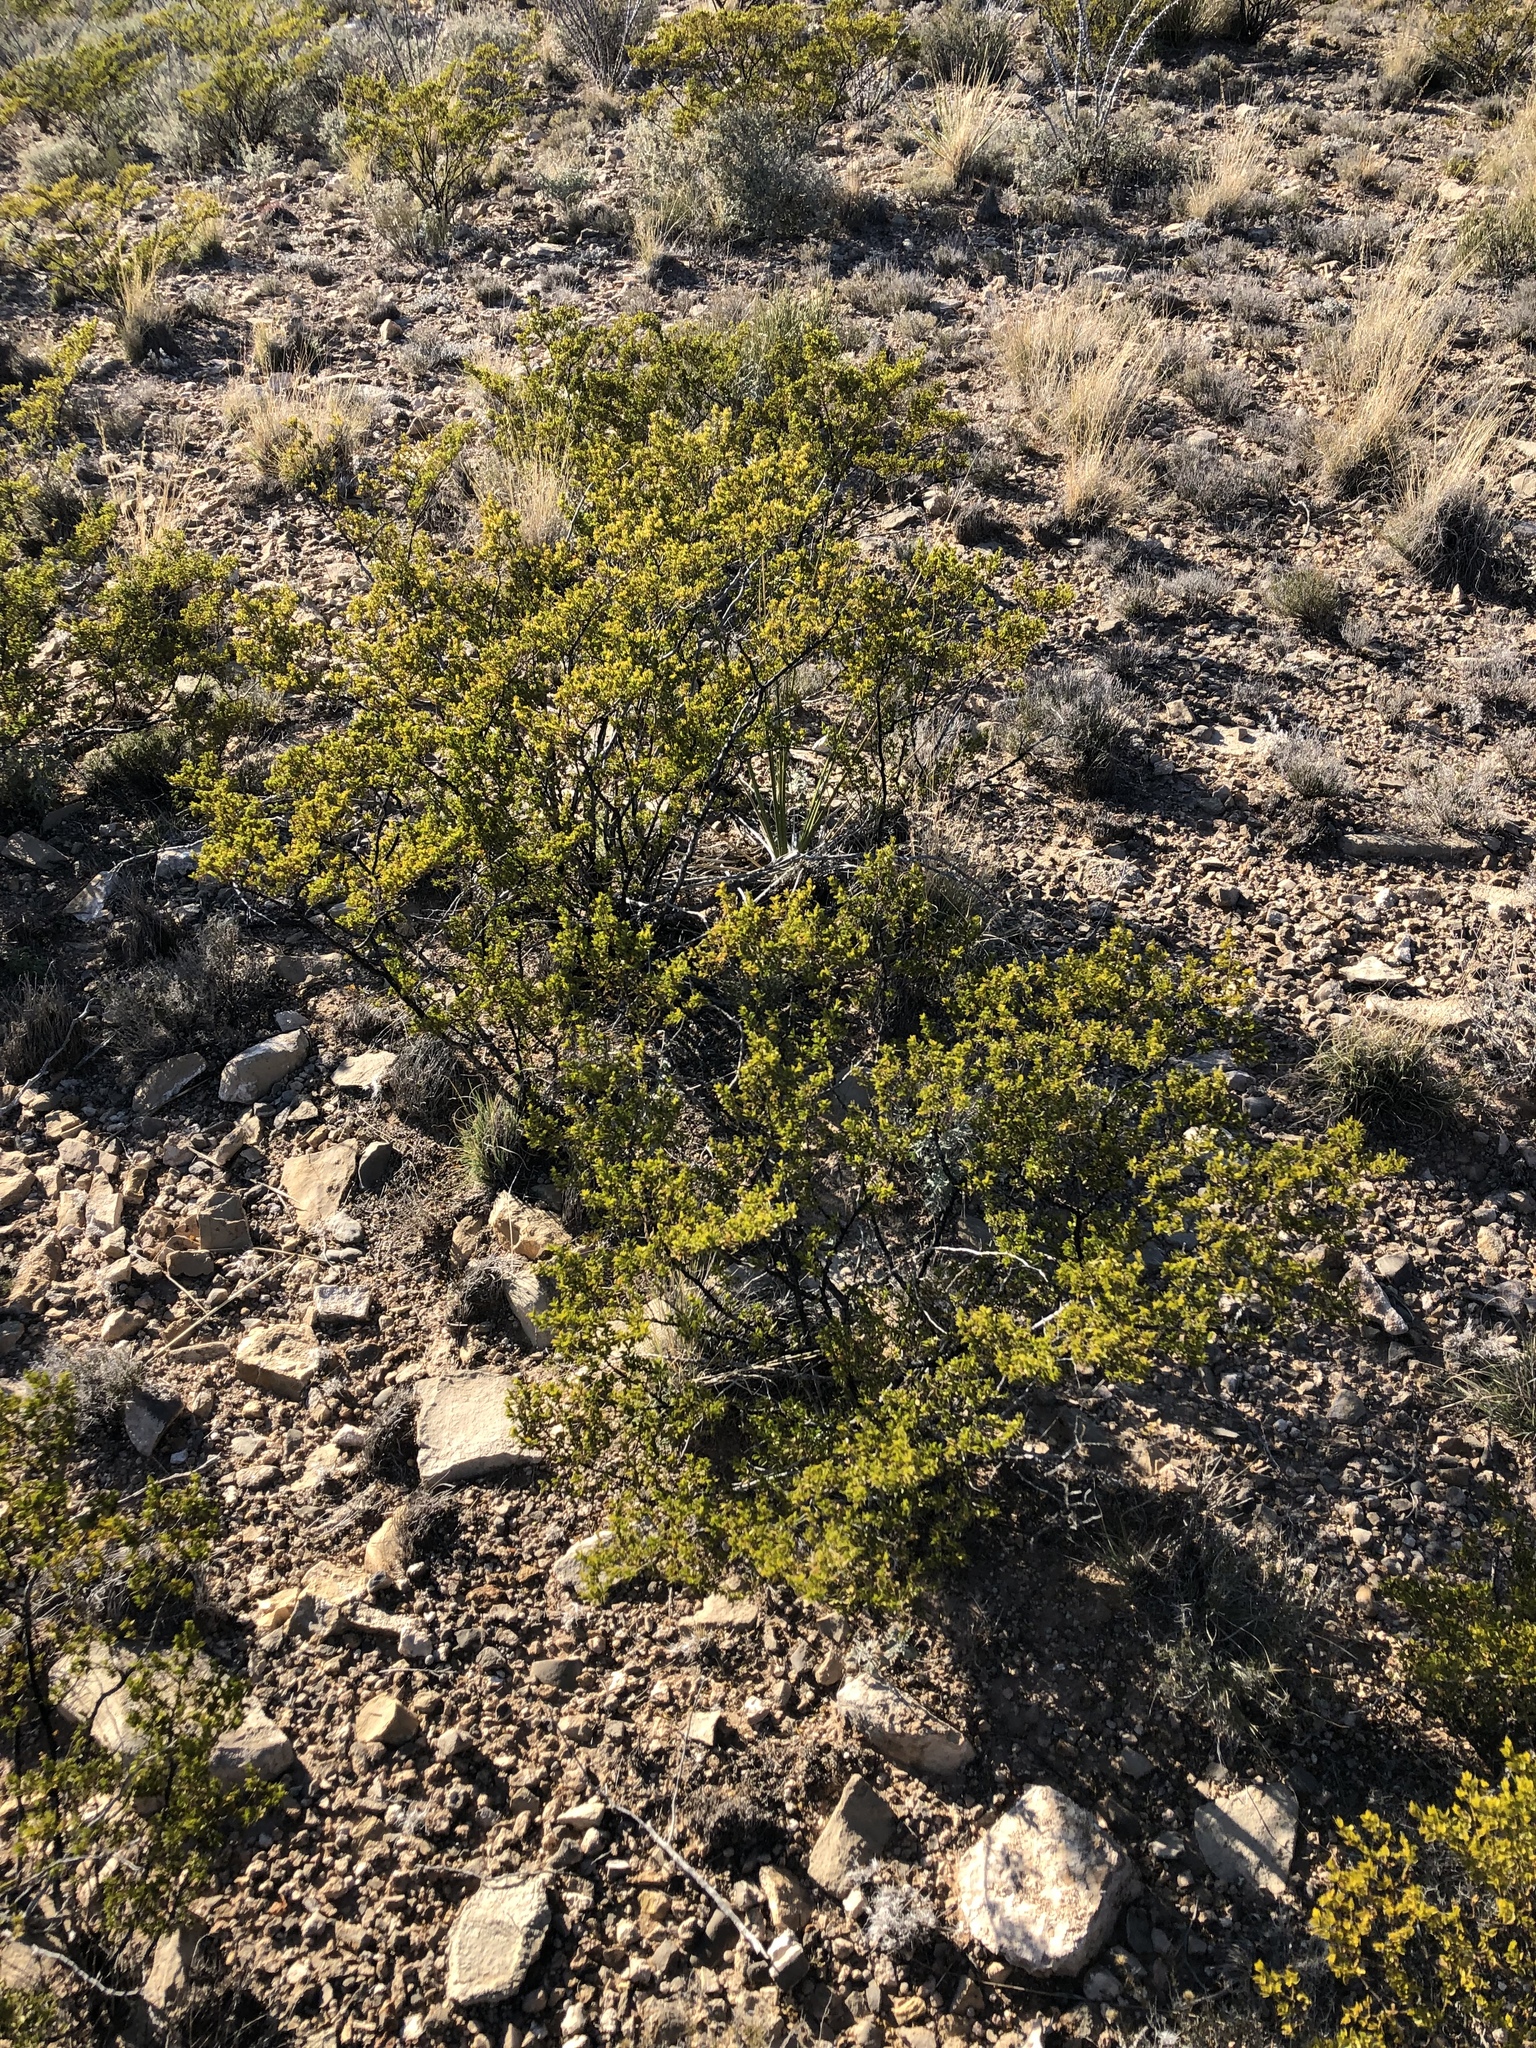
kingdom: Plantae
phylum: Tracheophyta
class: Magnoliopsida
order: Zygophyllales
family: Zygophyllaceae
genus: Larrea
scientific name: Larrea tridentata
